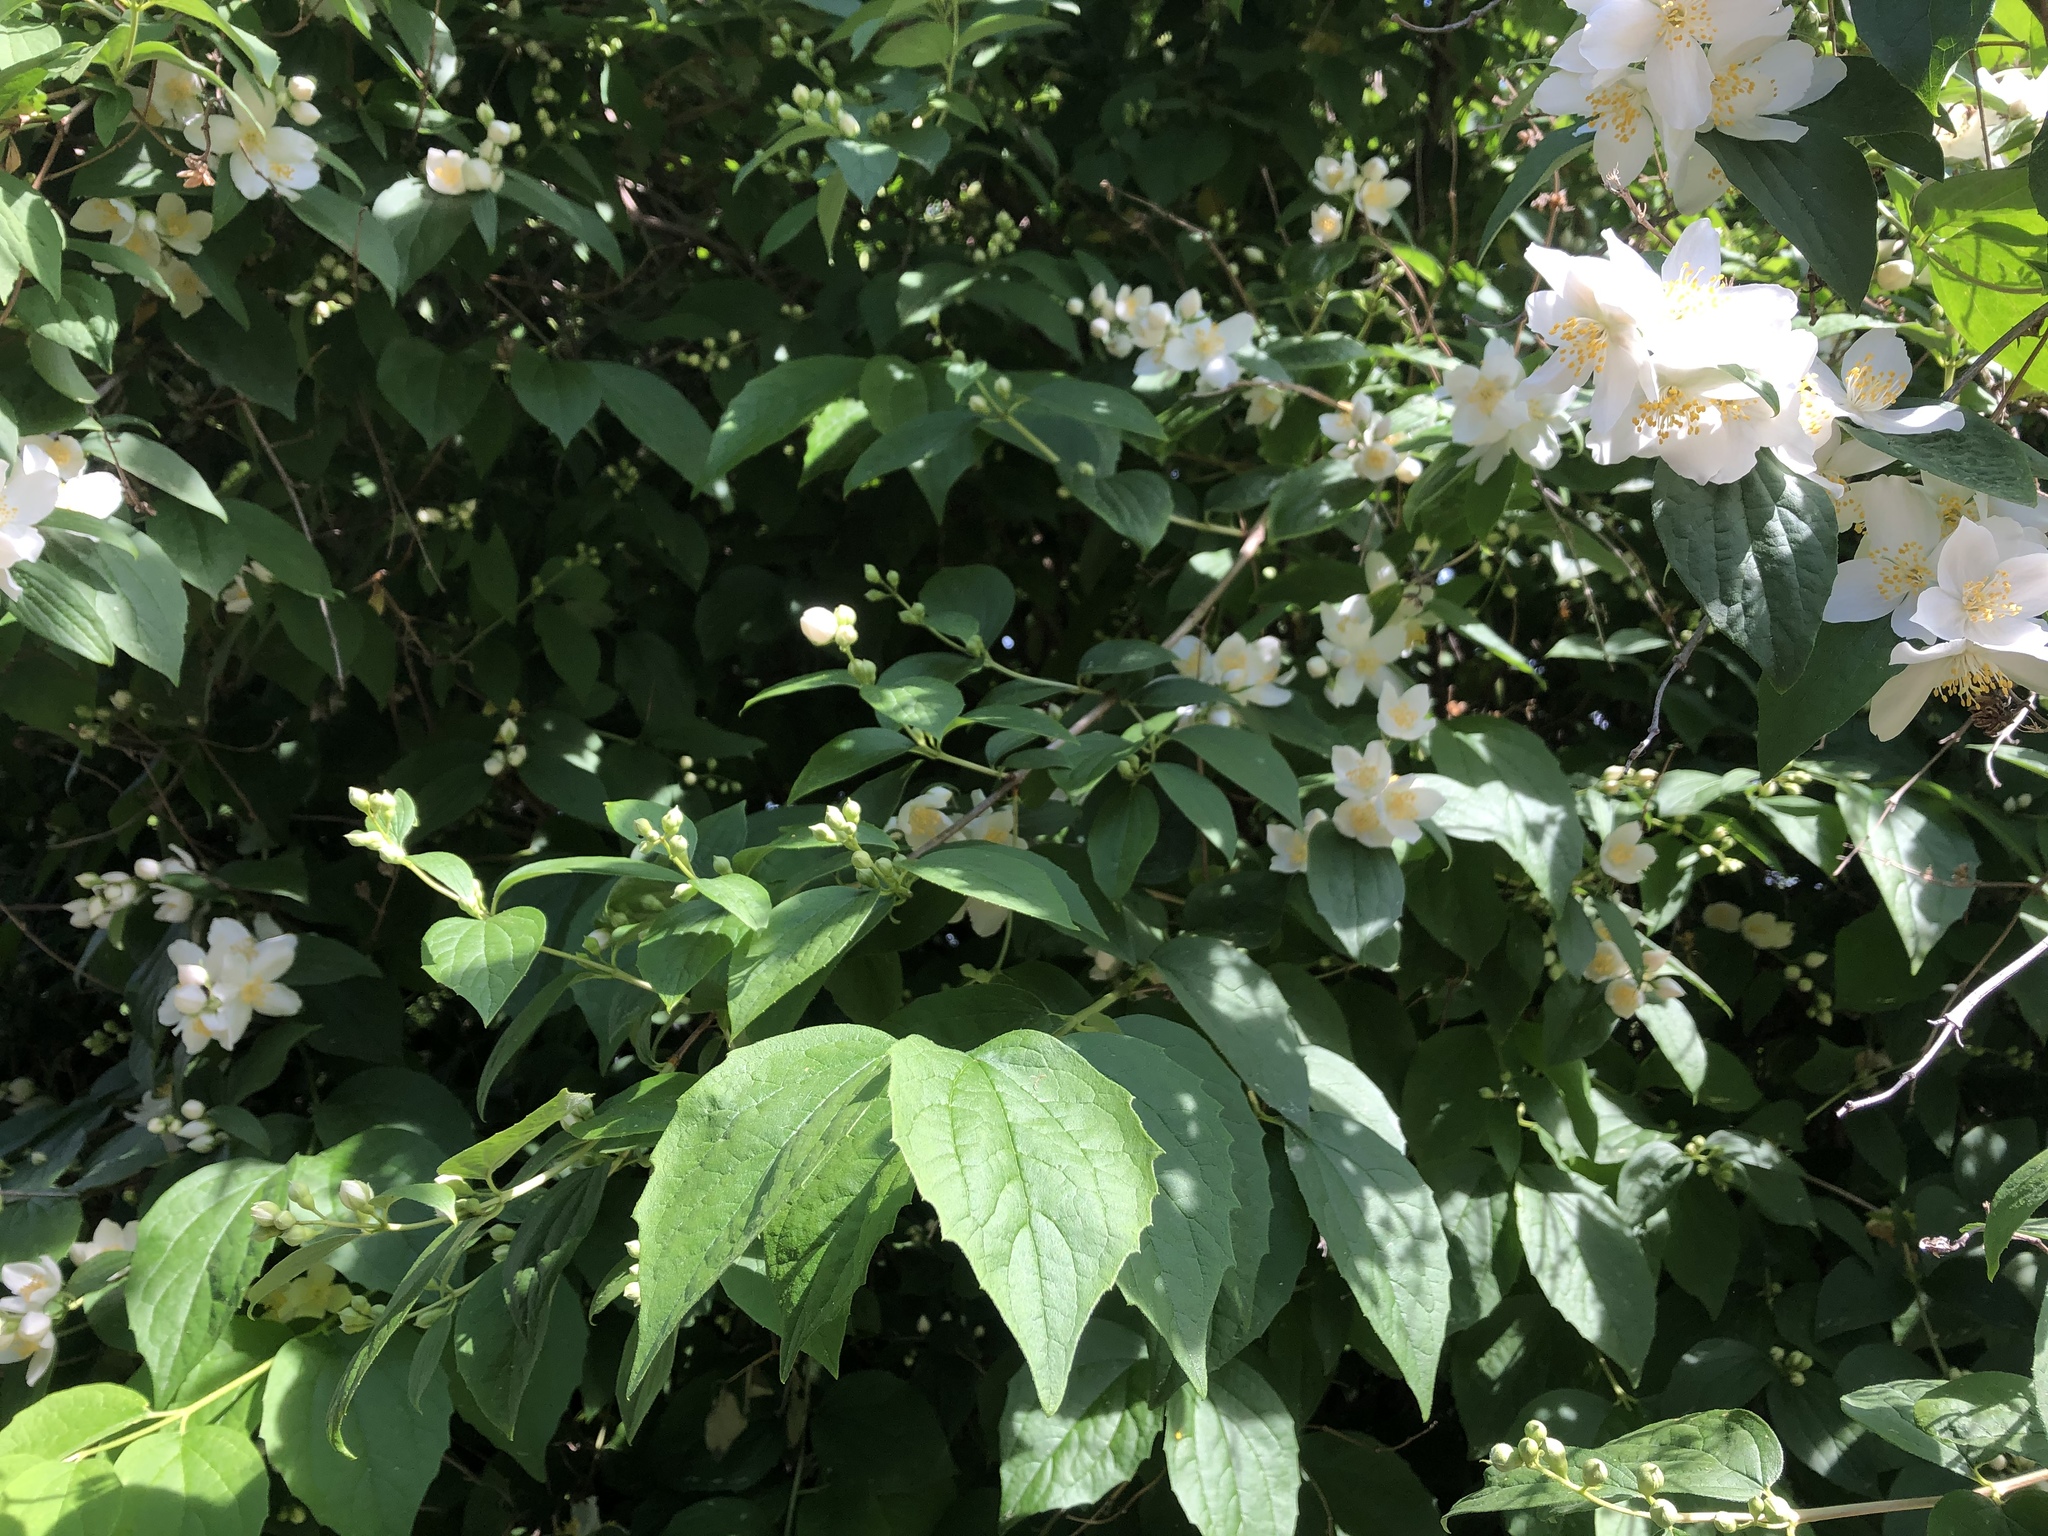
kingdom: Plantae
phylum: Tracheophyta
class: Magnoliopsida
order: Cornales
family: Hydrangeaceae
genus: Philadelphus
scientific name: Philadelphus coronarius
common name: Mock orange
